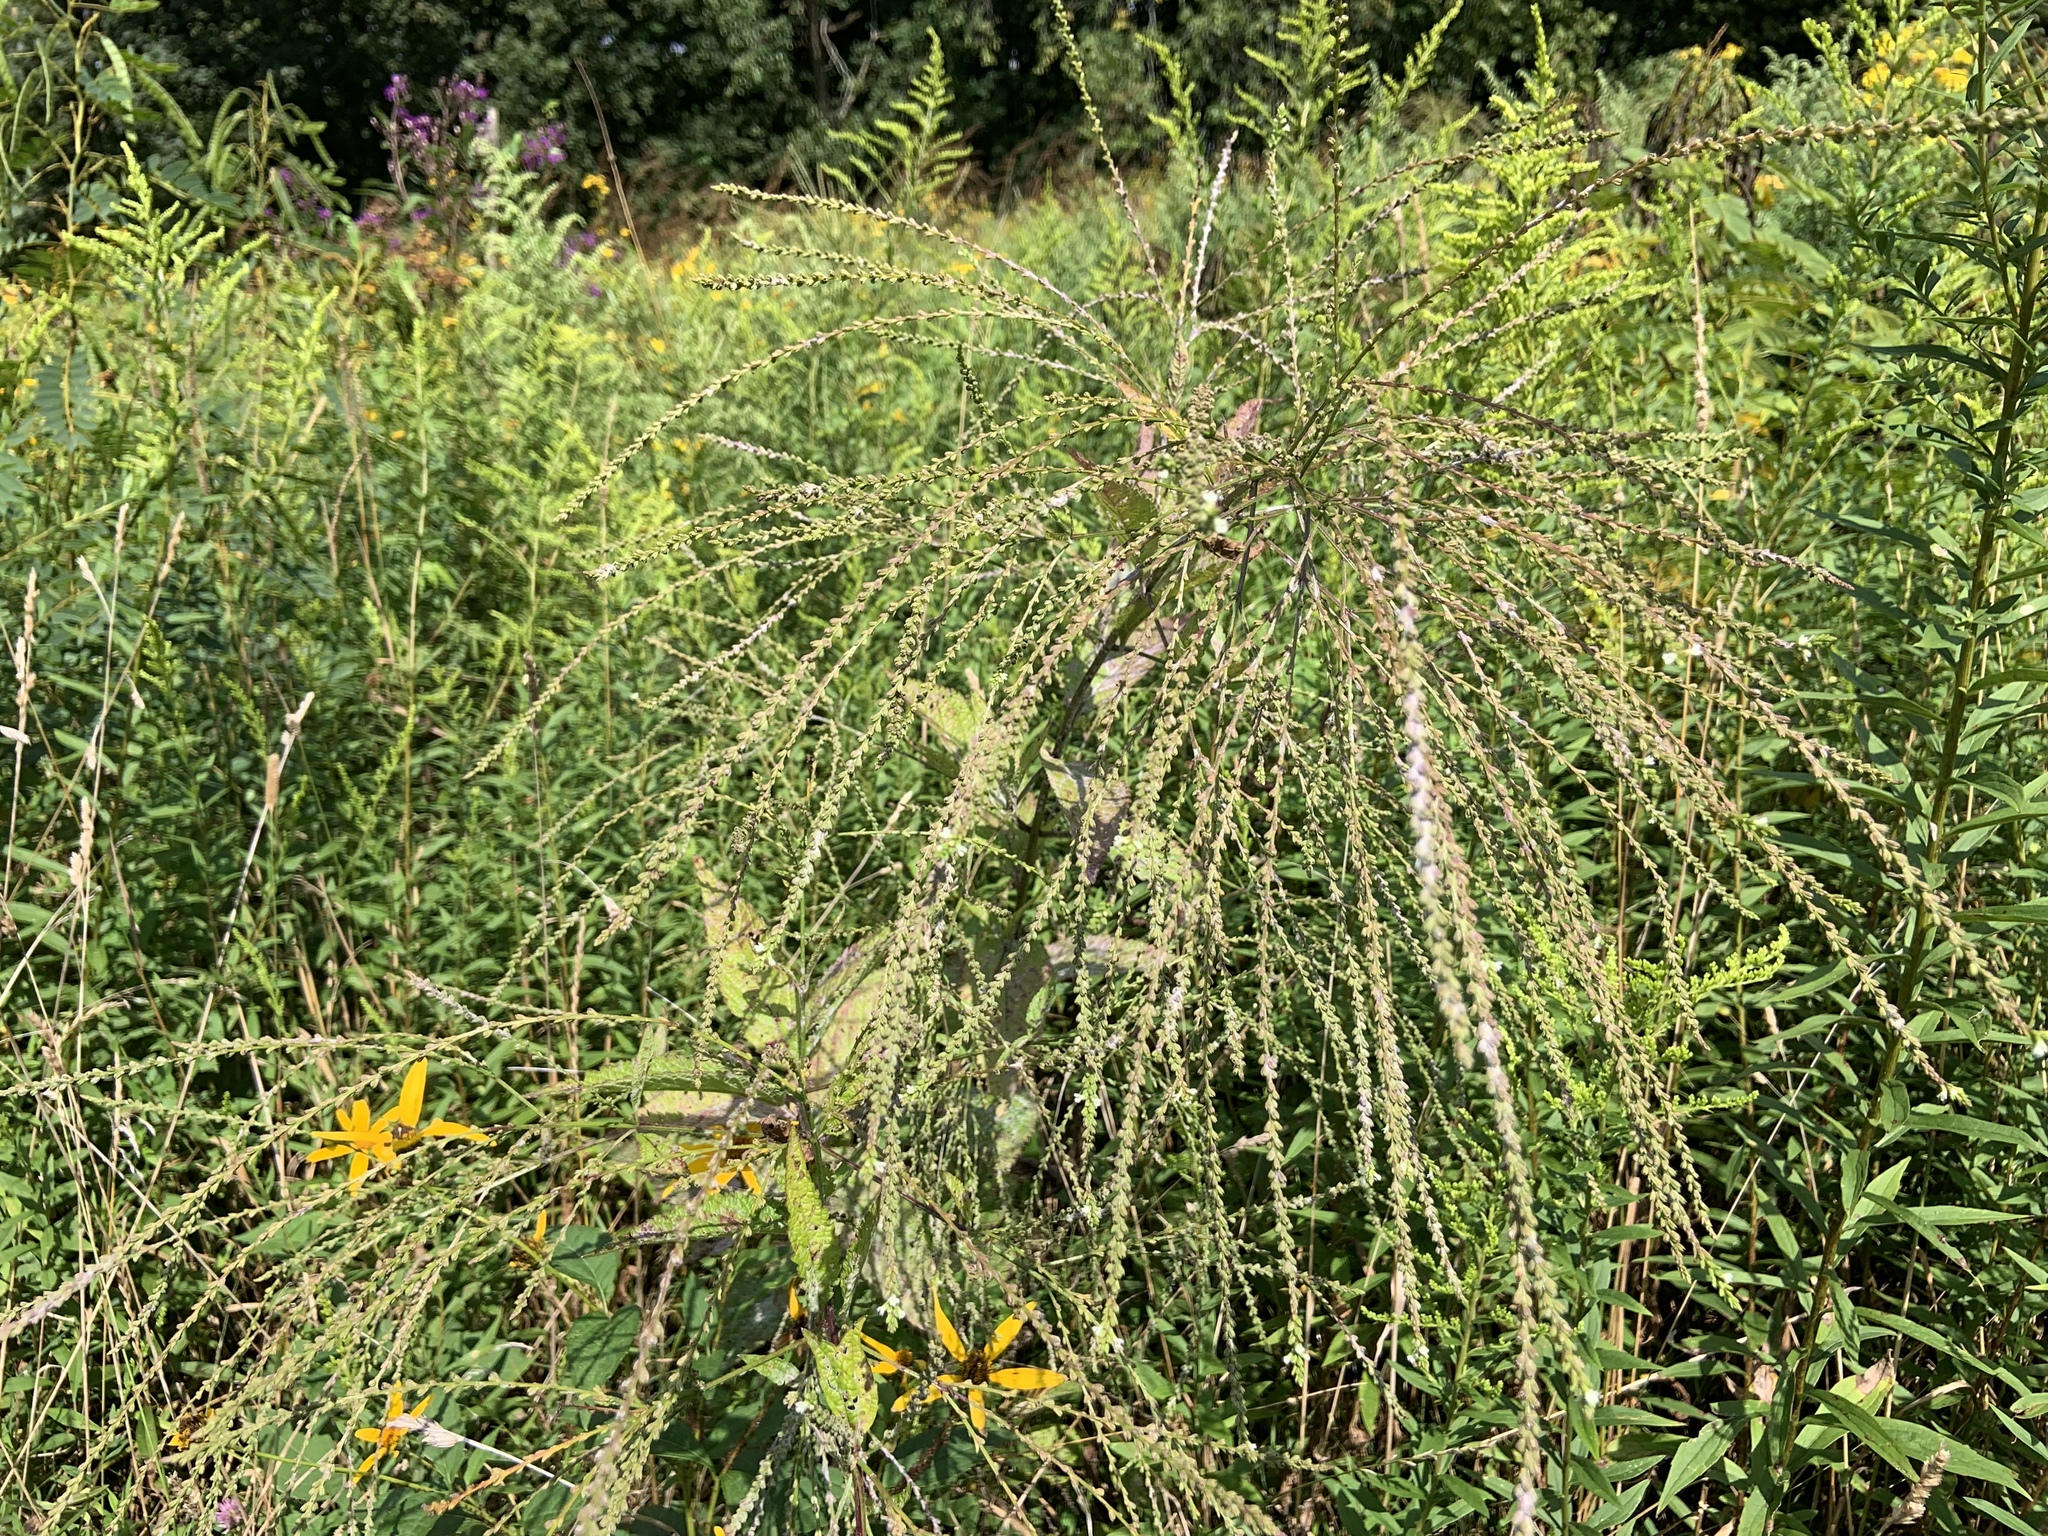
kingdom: Plantae
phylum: Tracheophyta
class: Magnoliopsida
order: Lamiales
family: Verbenaceae
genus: Verbena
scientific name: Verbena urticifolia
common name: Nettle-leaved vervain
